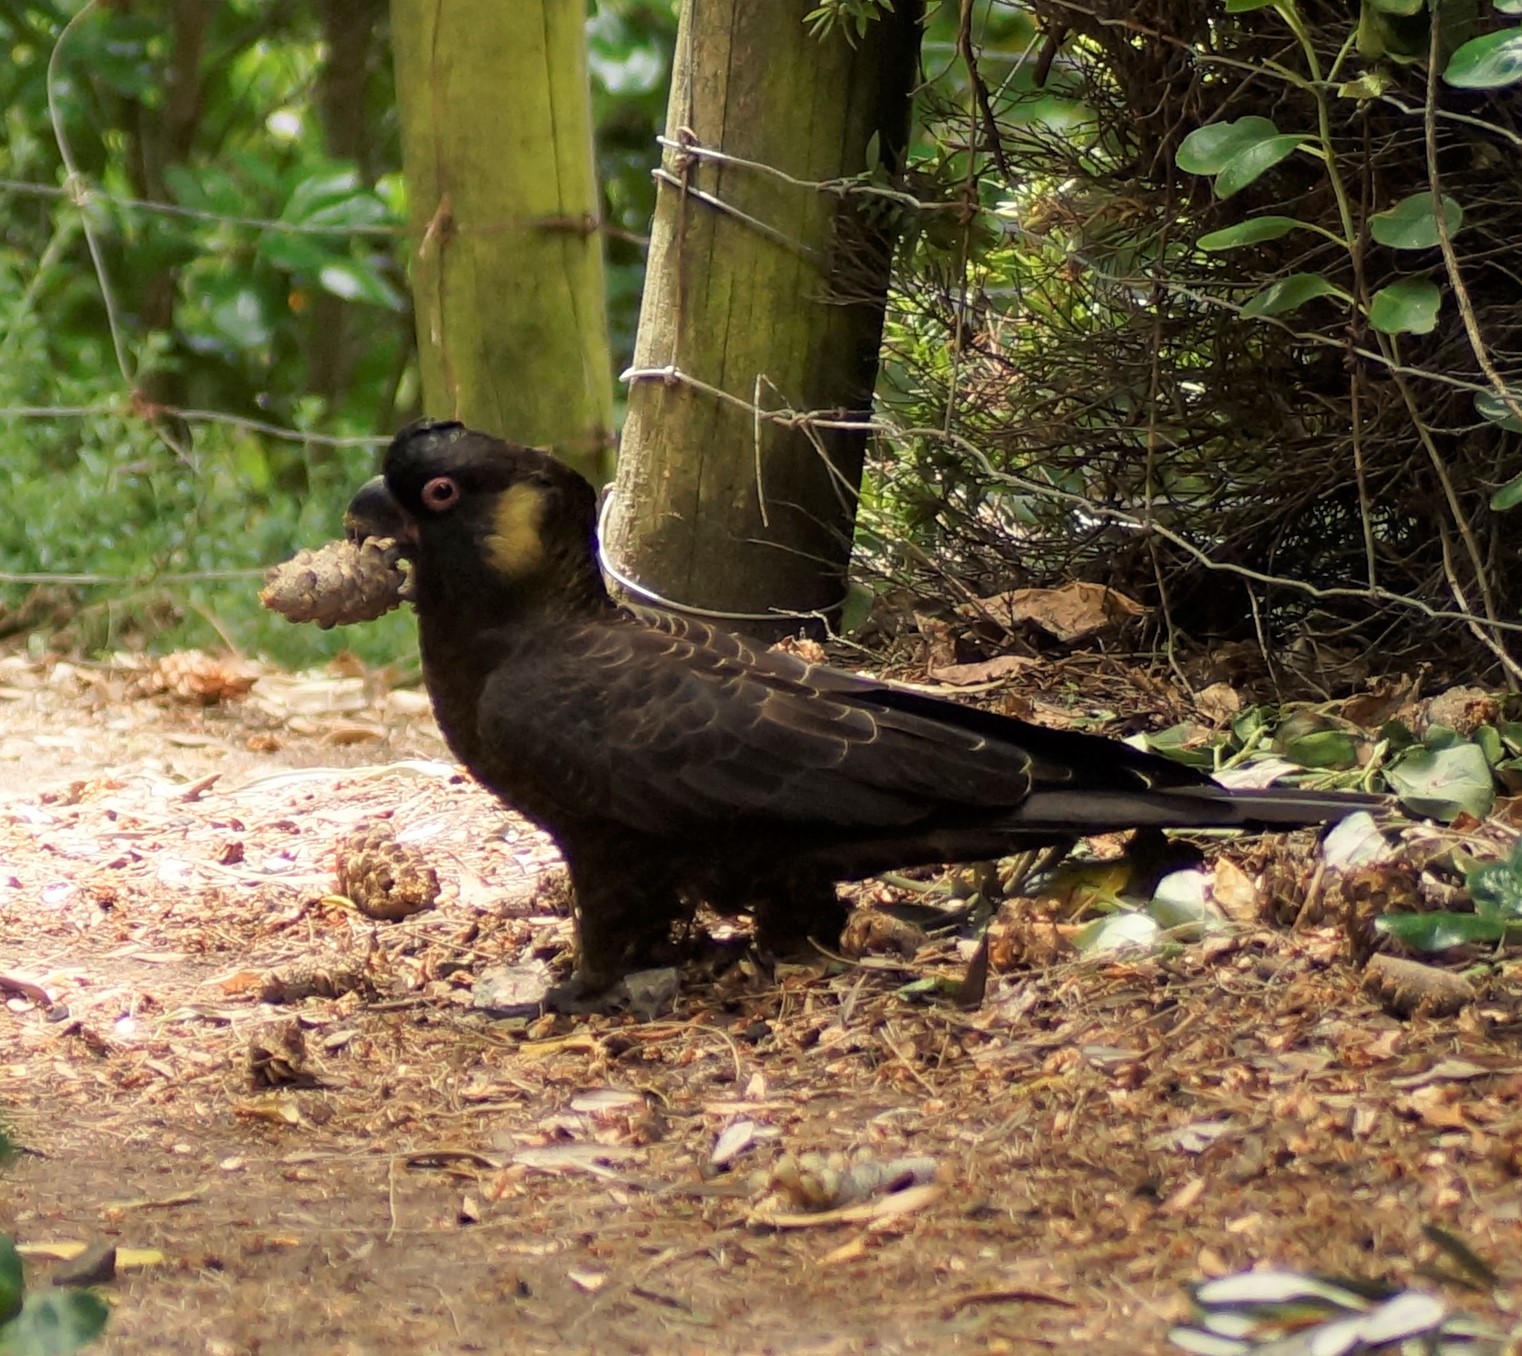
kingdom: Animalia
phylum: Chordata
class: Aves
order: Psittaciformes
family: Cacatuidae
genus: Zanda
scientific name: Zanda funerea
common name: Yellow-tailed black-cockatoo
